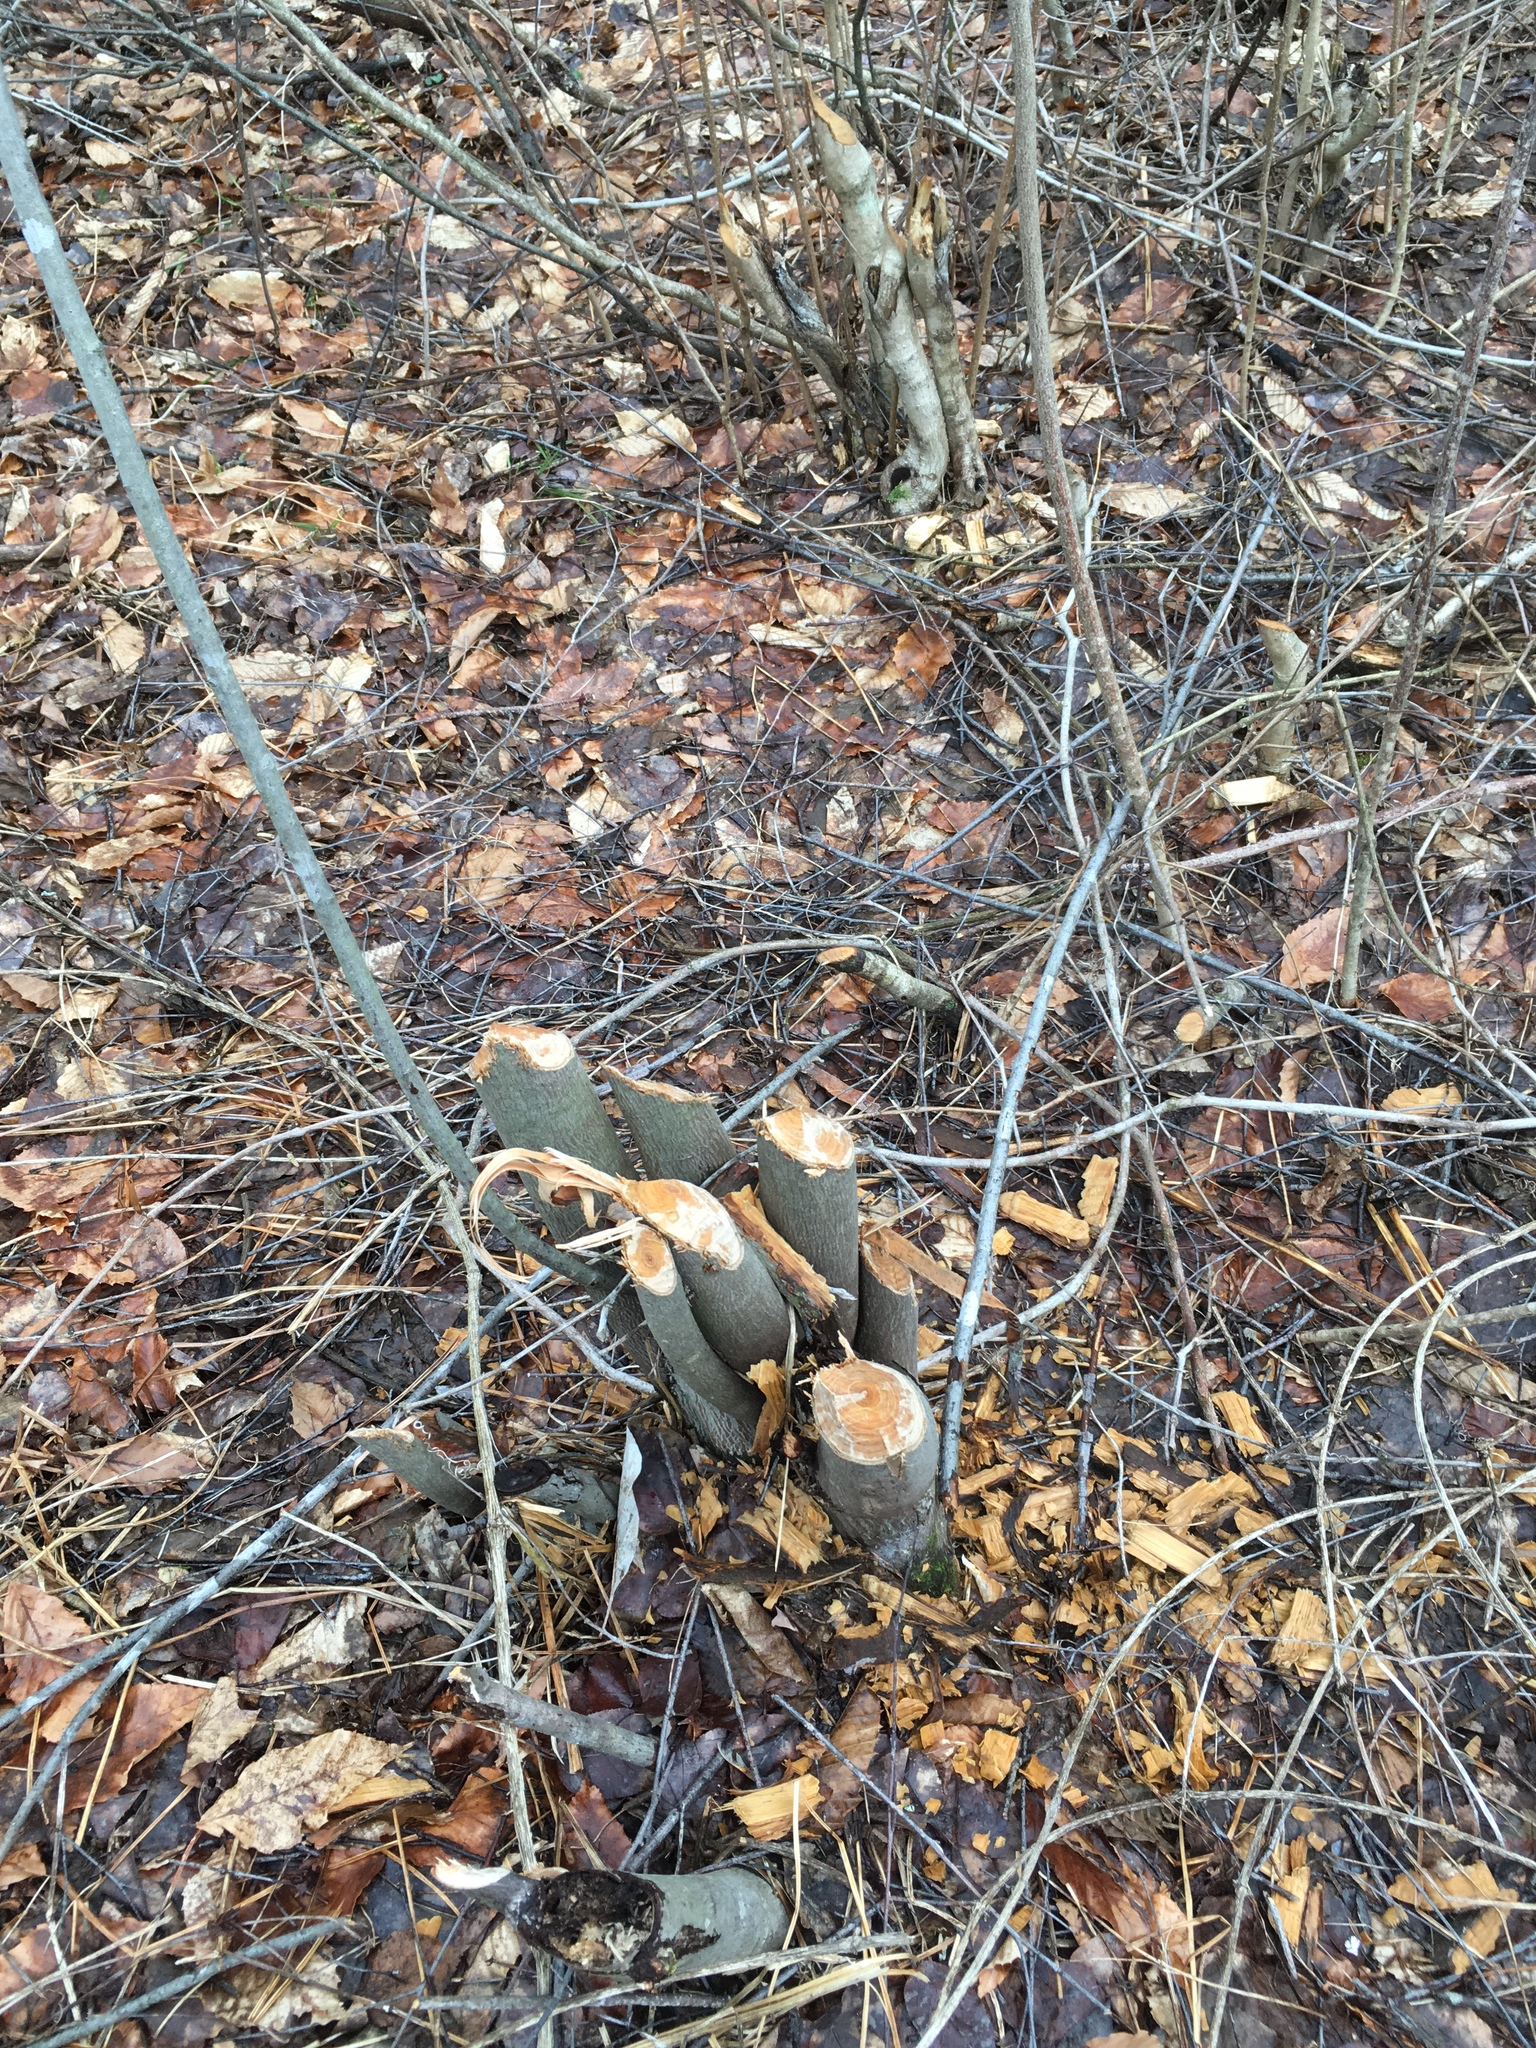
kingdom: Animalia
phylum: Chordata
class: Mammalia
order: Rodentia
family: Castoridae
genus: Castor
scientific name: Castor canadensis
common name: American beaver
